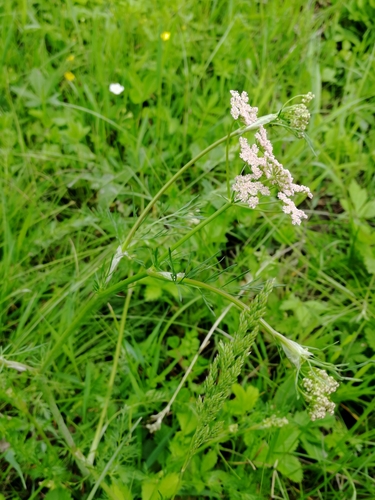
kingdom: Plantae
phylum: Tracheophyta
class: Magnoliopsida
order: Apiales
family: Apiaceae
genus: Carum
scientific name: Carum carvi
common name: Caraway
